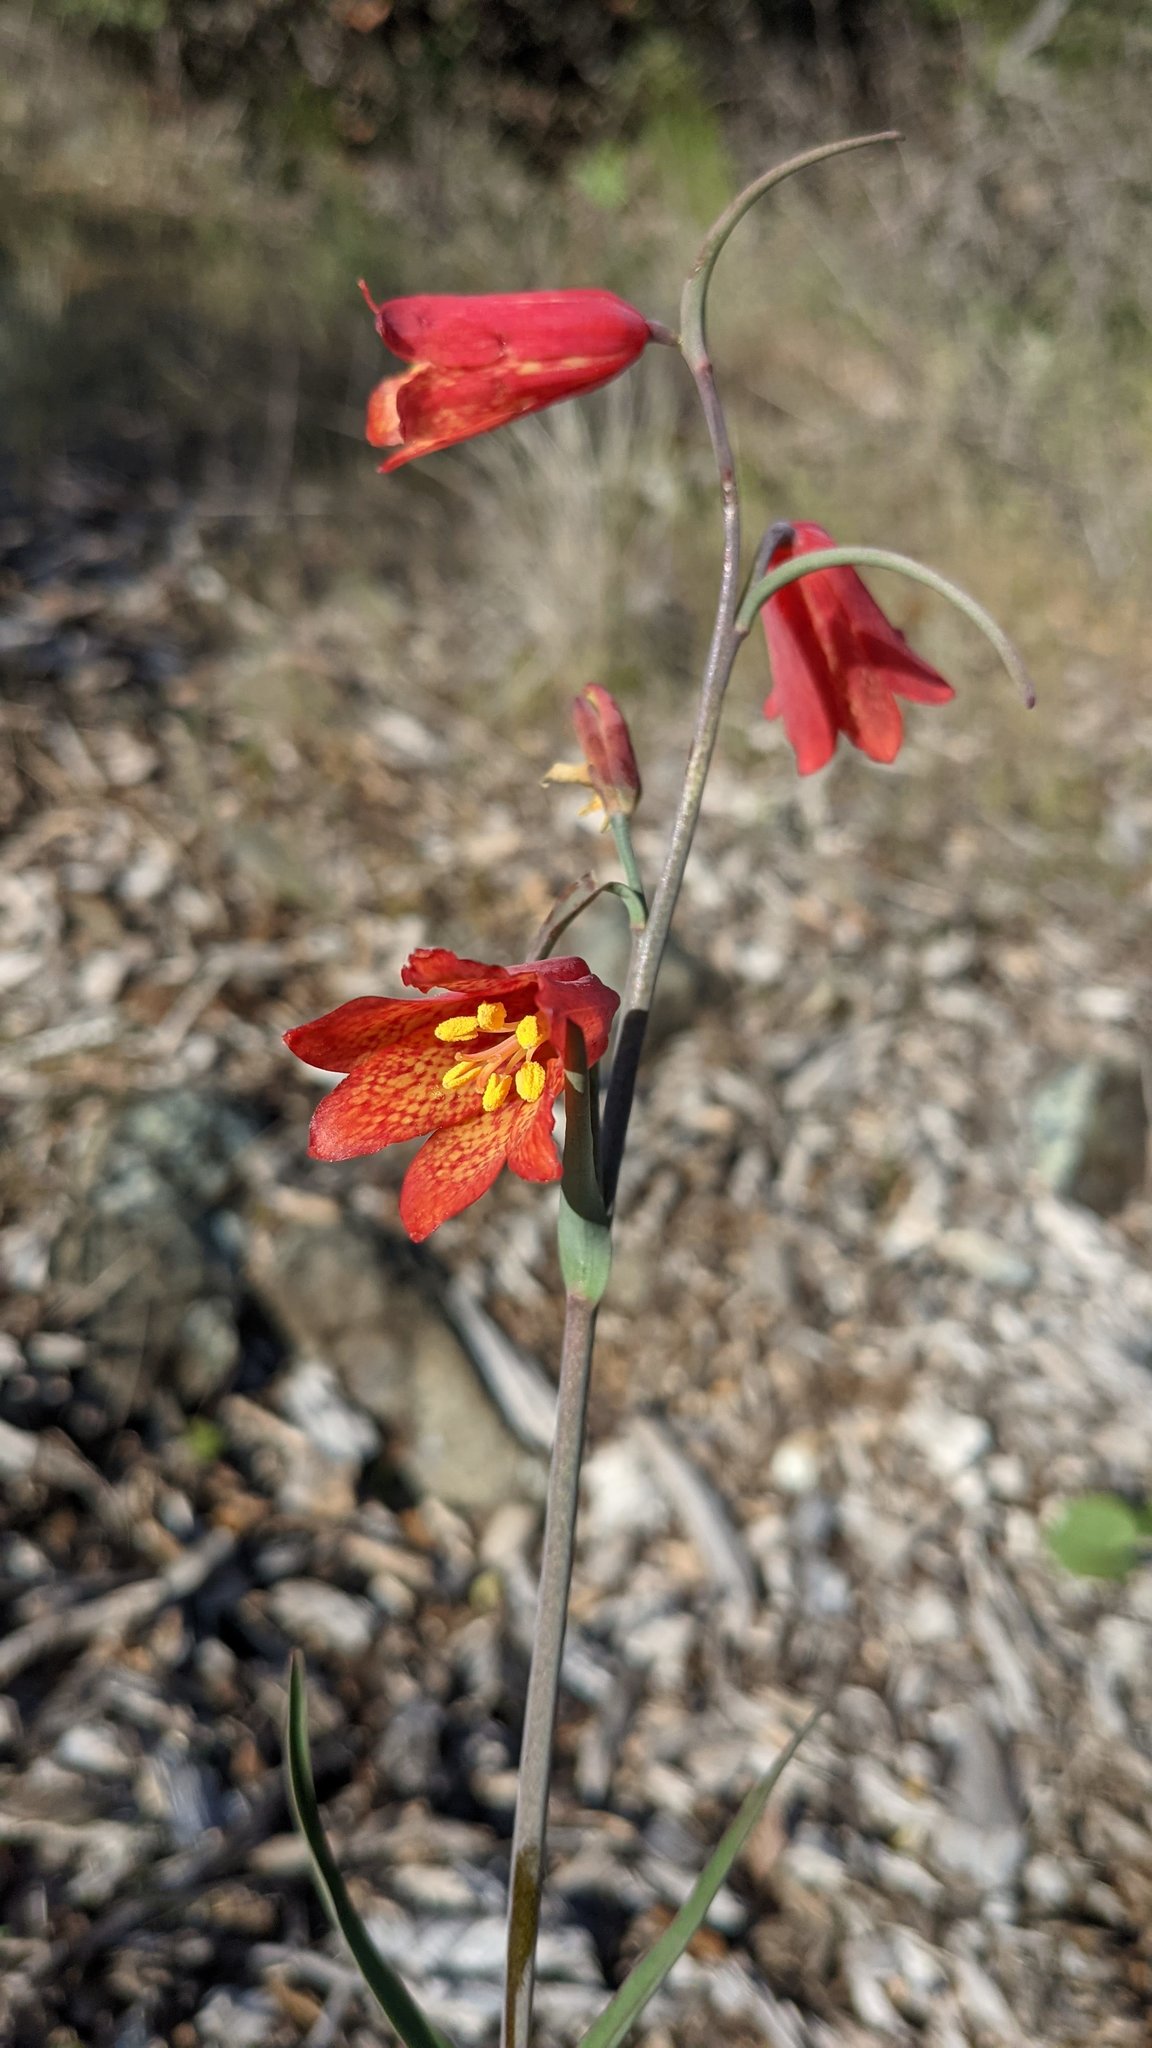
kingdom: Plantae
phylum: Tracheophyta
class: Liliopsida
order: Liliales
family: Liliaceae
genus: Fritillaria
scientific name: Fritillaria recurva
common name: Scarlet fritillary
